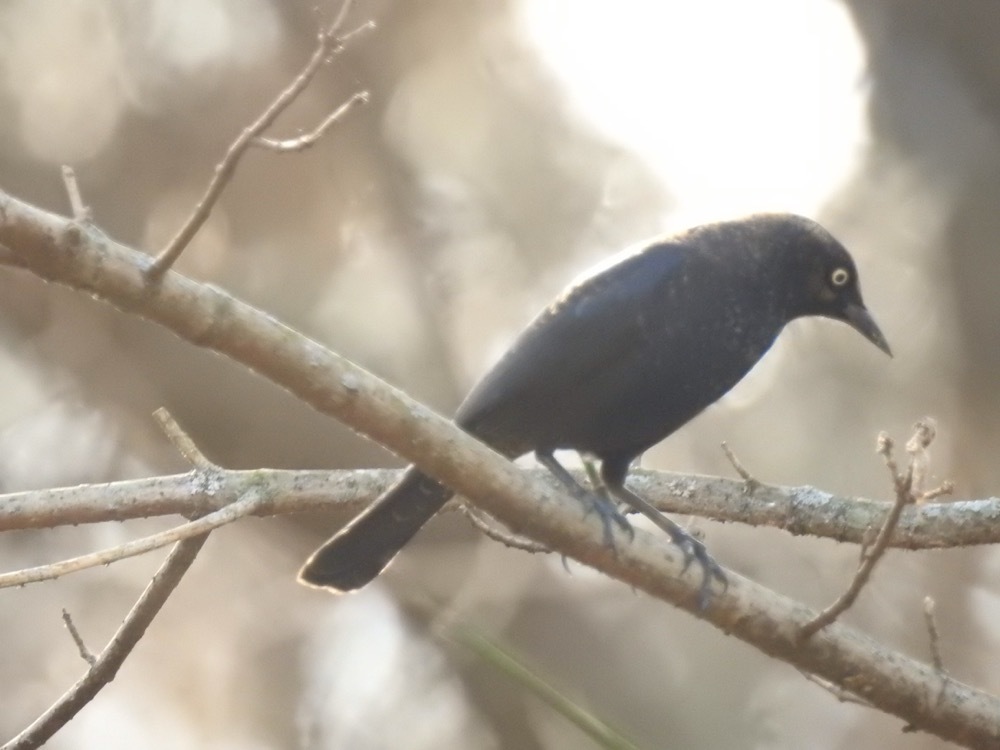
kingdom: Animalia
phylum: Chordata
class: Aves
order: Passeriformes
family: Icteridae
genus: Euphagus
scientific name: Euphagus carolinus
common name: Rusty blackbird
